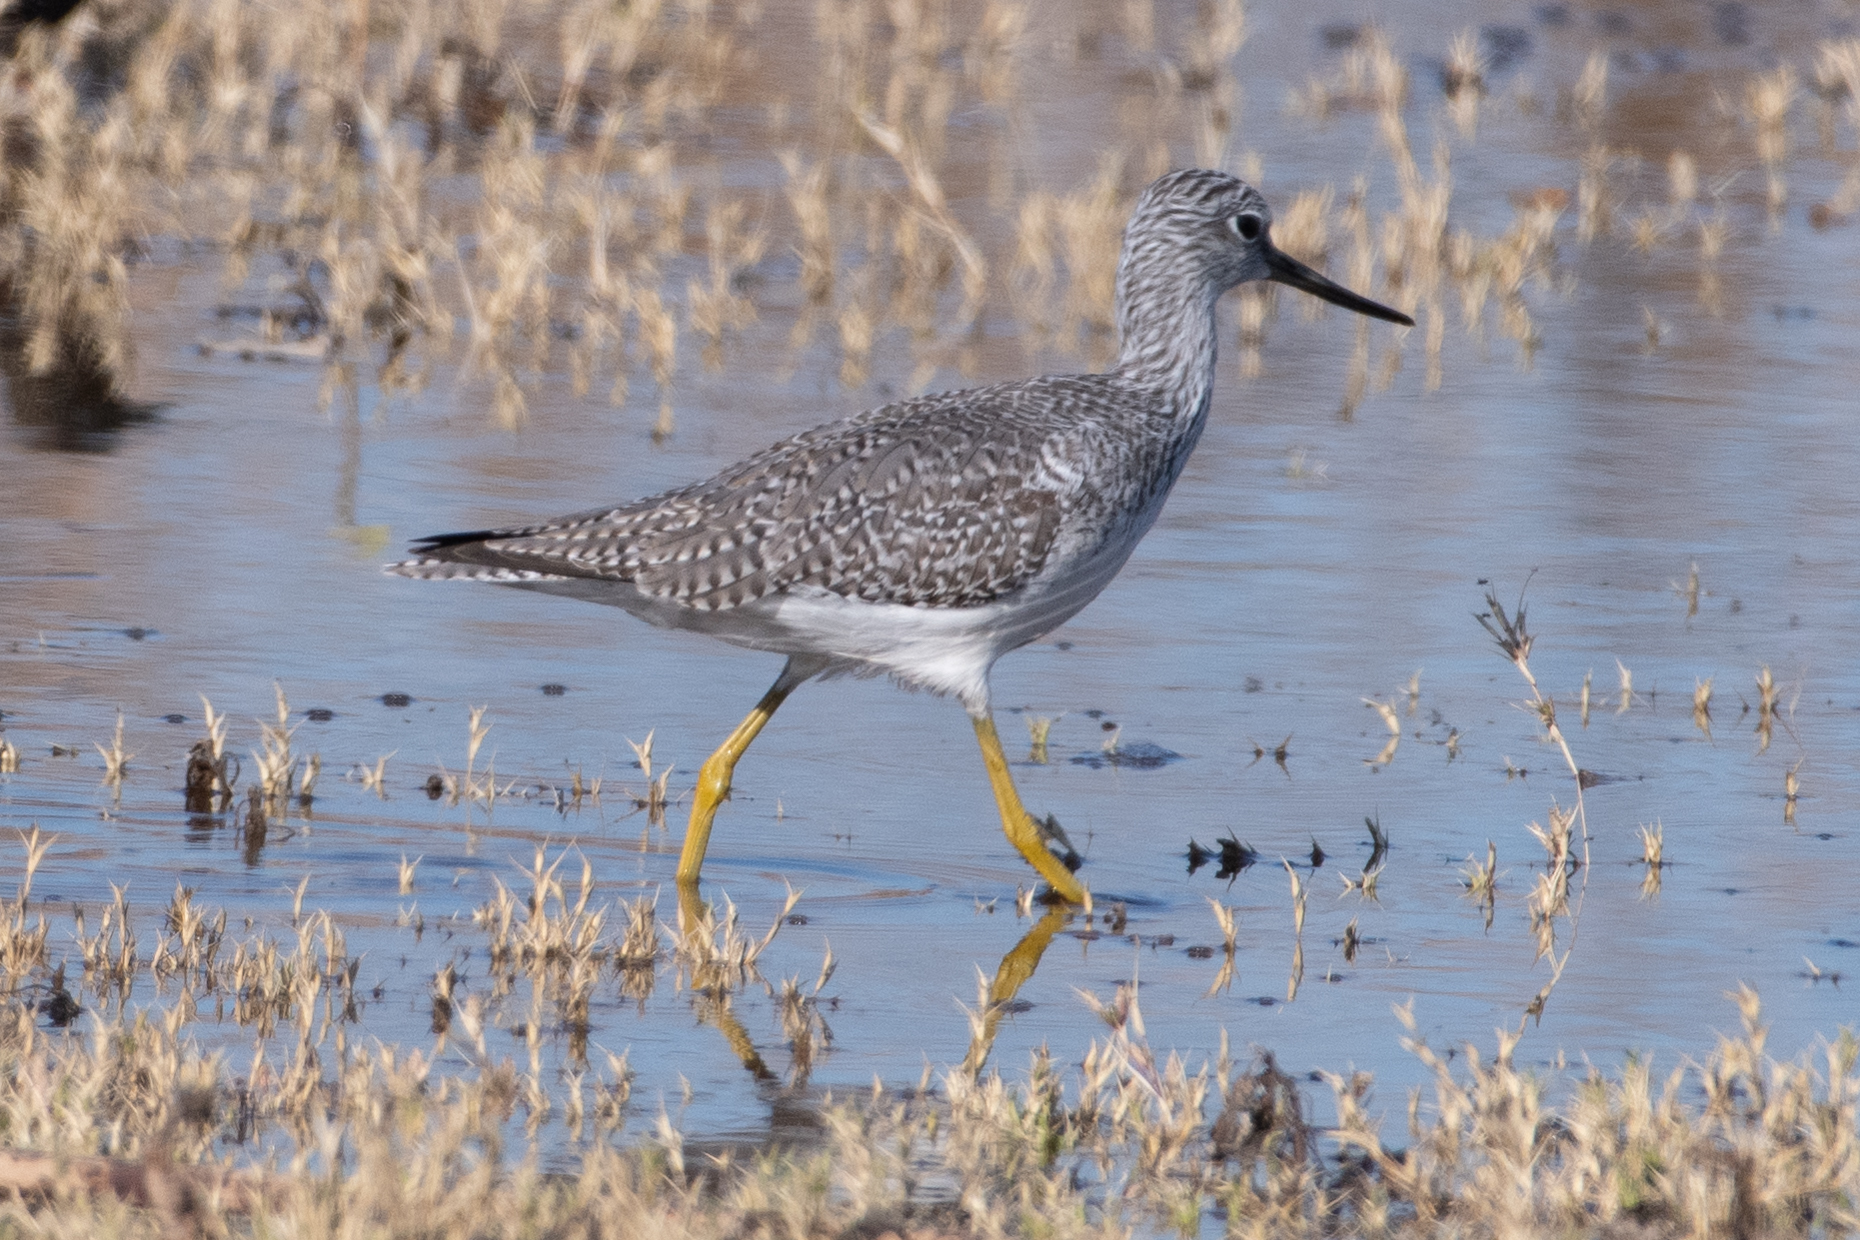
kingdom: Animalia
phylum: Chordata
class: Aves
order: Charadriiformes
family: Scolopacidae
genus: Tringa
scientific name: Tringa melanoleuca
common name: Greater yellowlegs
